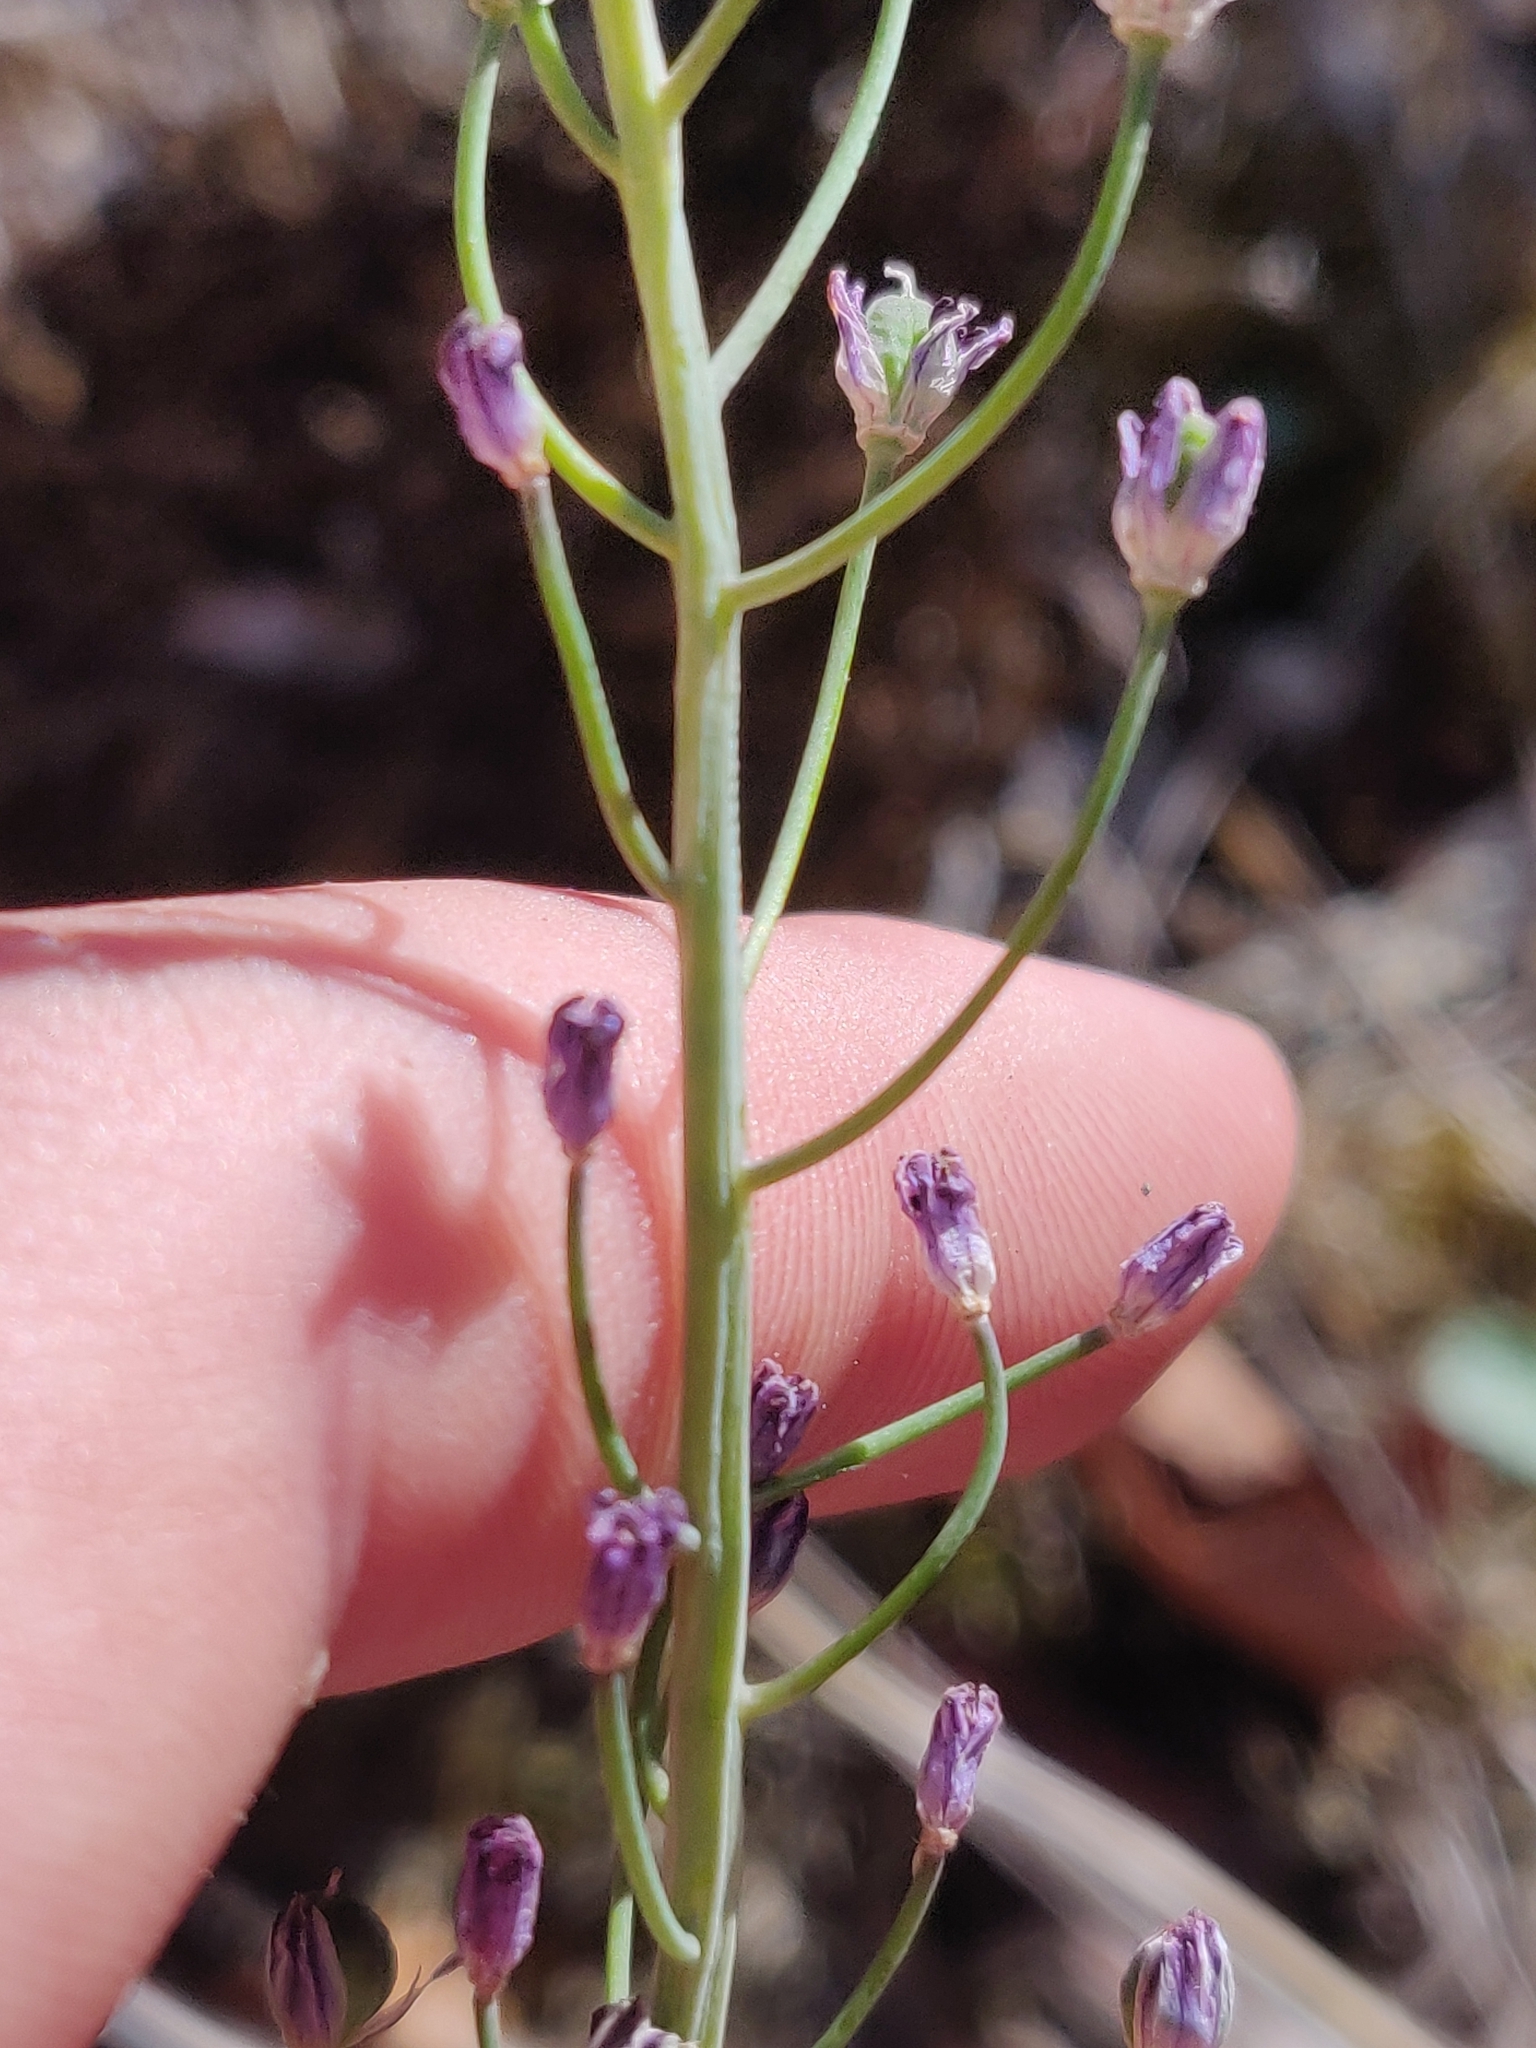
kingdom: Plantae
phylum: Tracheophyta
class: Liliopsida
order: Asparagales
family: Asparagaceae
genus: Prospero
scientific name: Prospero autumnale
